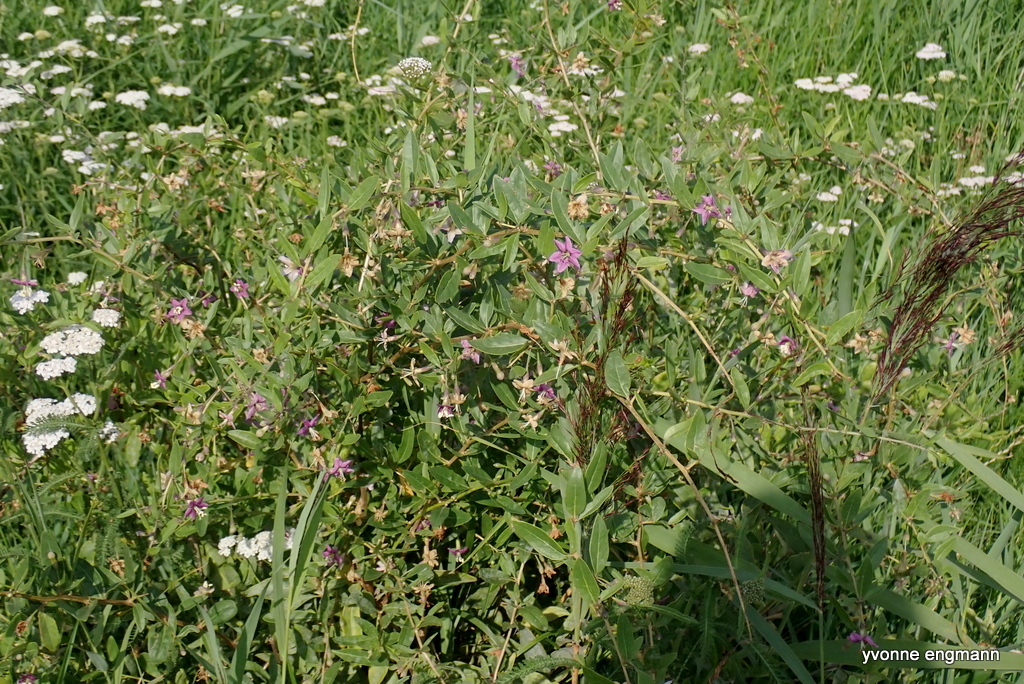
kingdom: Plantae
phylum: Tracheophyta
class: Magnoliopsida
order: Solanales
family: Solanaceae
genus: Lycium
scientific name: Lycium barbarum
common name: Duke of argyll's teaplant
